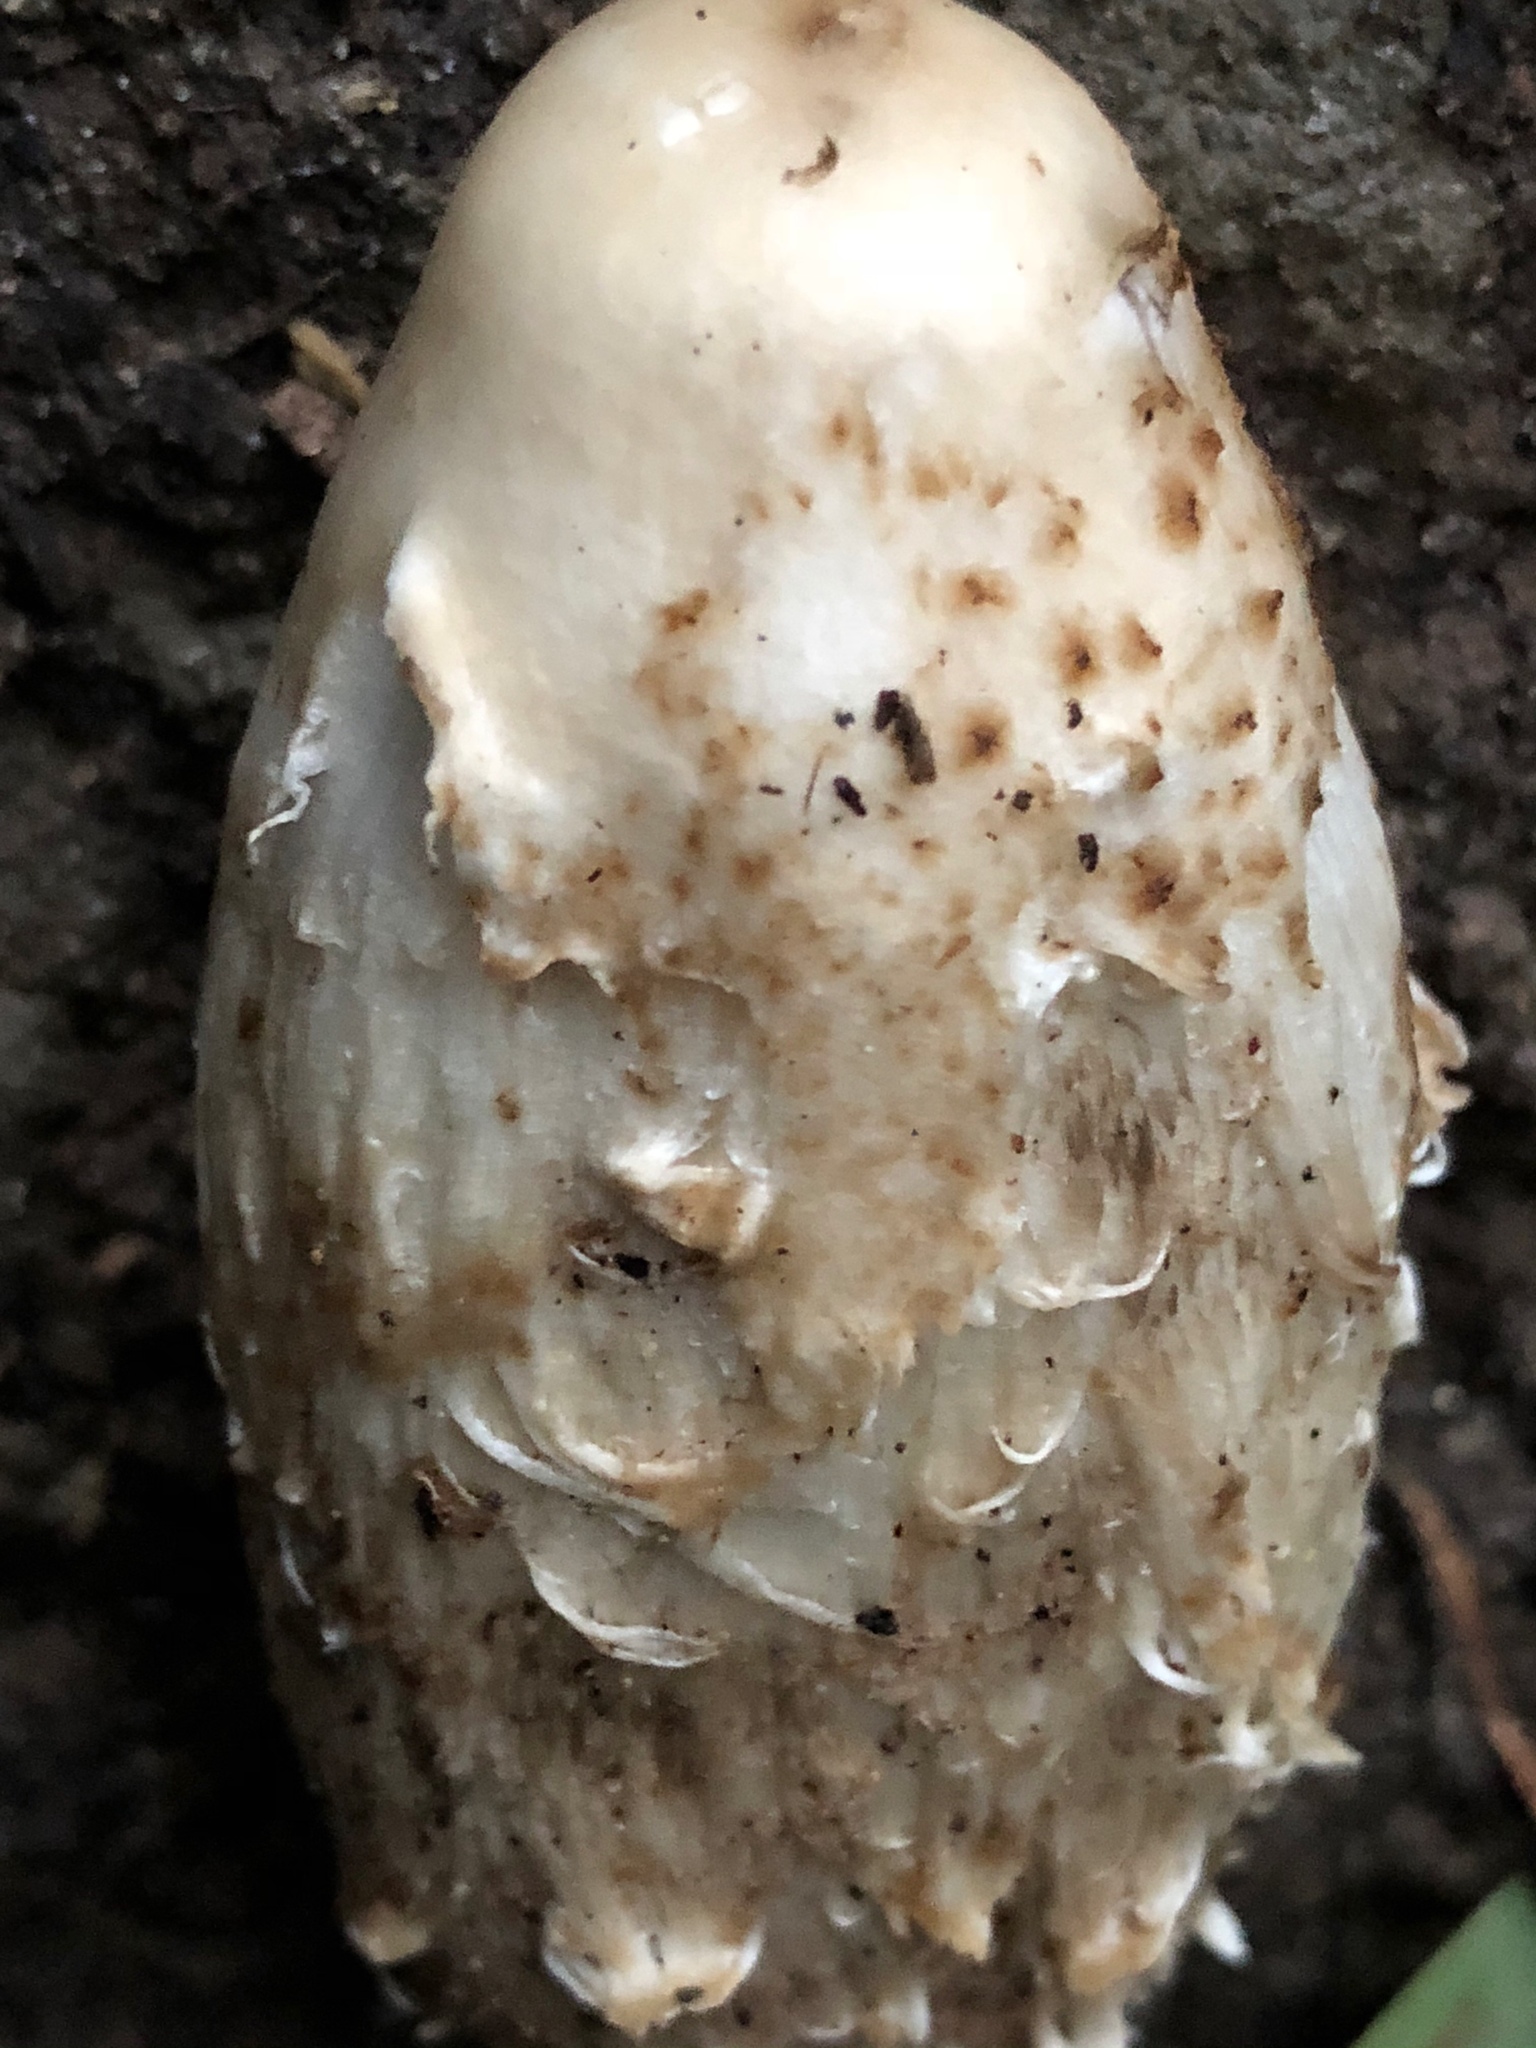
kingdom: Fungi
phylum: Basidiomycota
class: Agaricomycetes
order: Agaricales
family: Agaricaceae
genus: Coprinus
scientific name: Coprinus comatus
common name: Lawyer's wig
